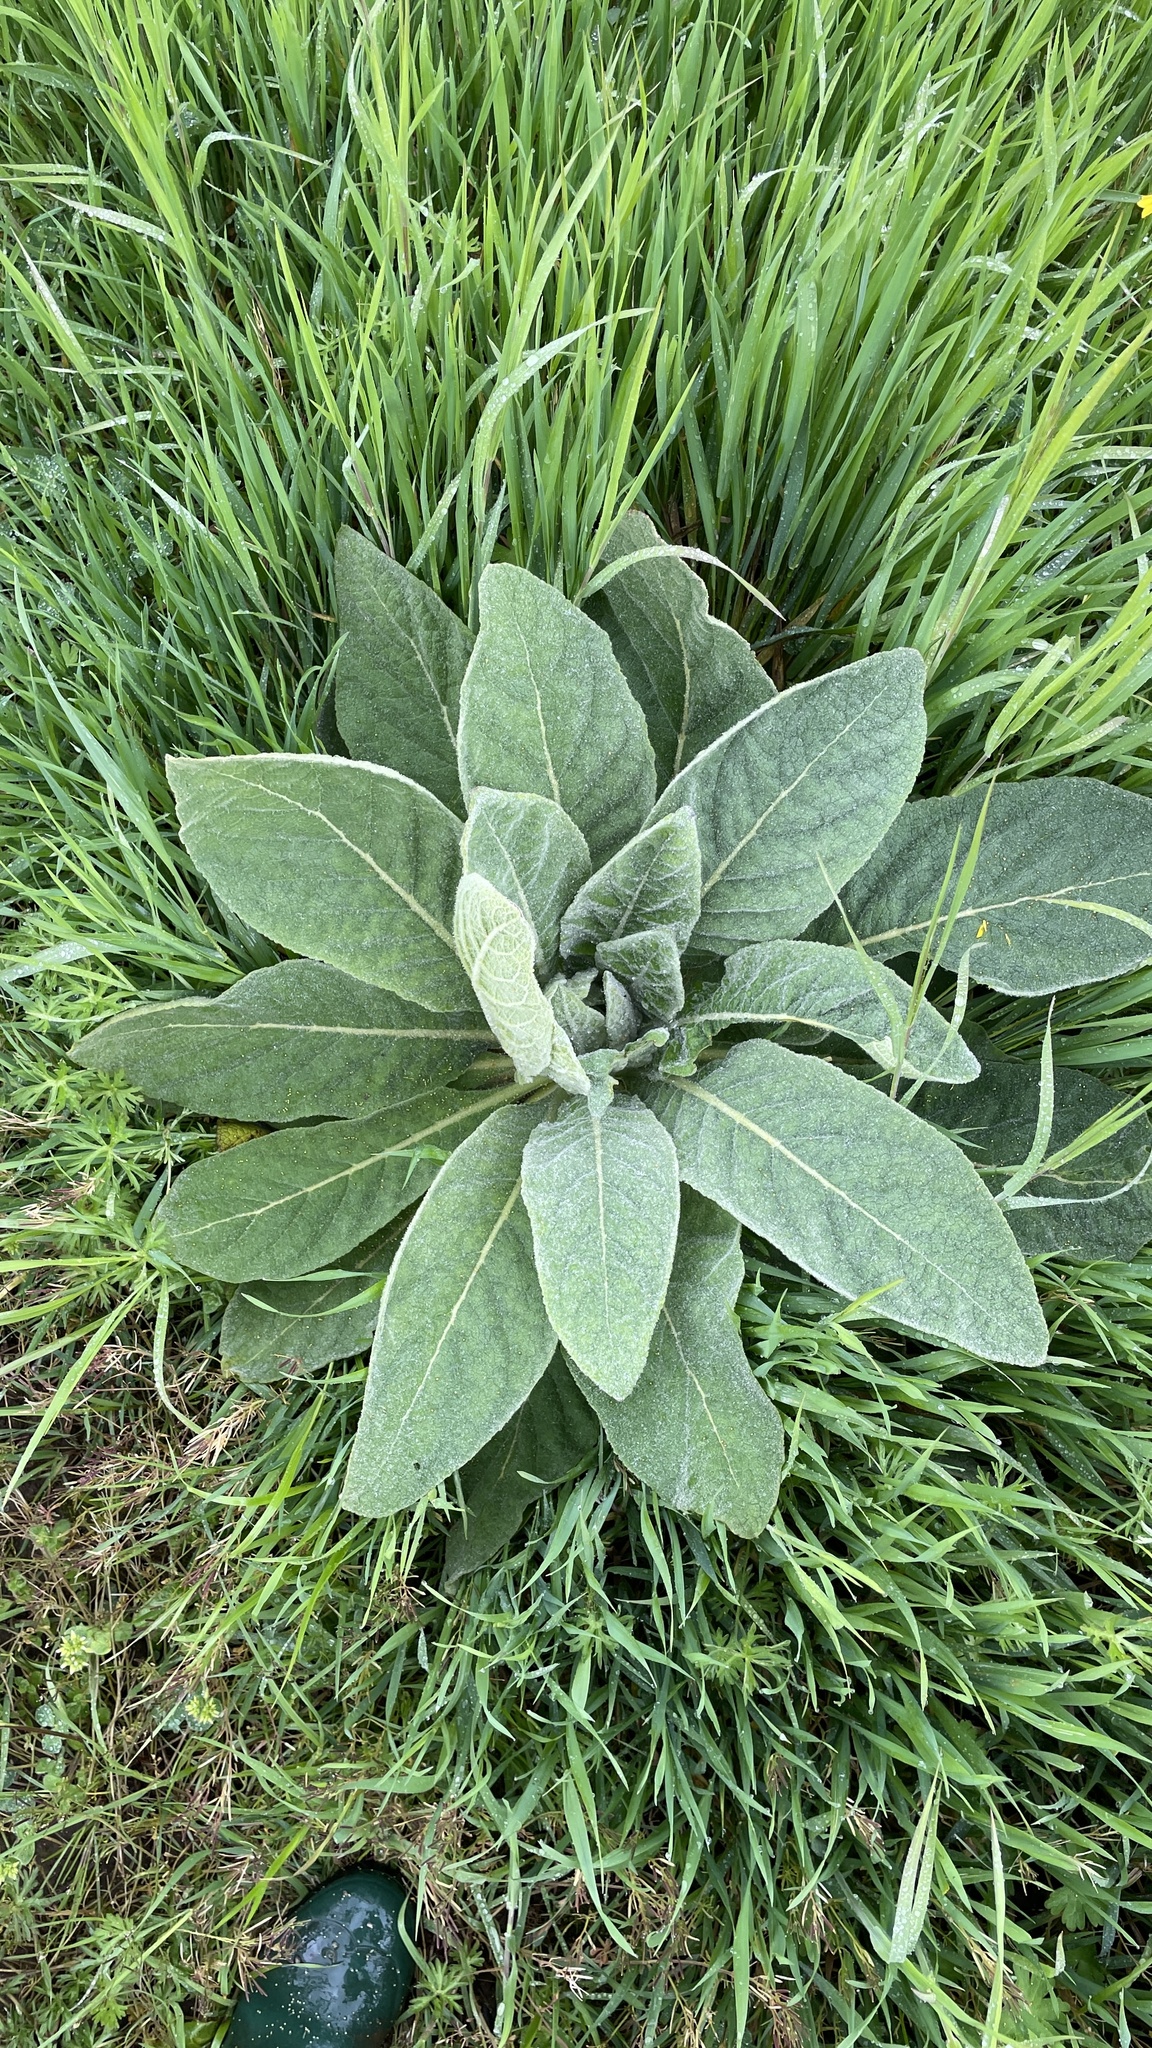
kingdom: Plantae
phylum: Tracheophyta
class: Magnoliopsida
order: Lamiales
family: Scrophulariaceae
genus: Verbascum
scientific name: Verbascum thapsus
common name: Common mullein
